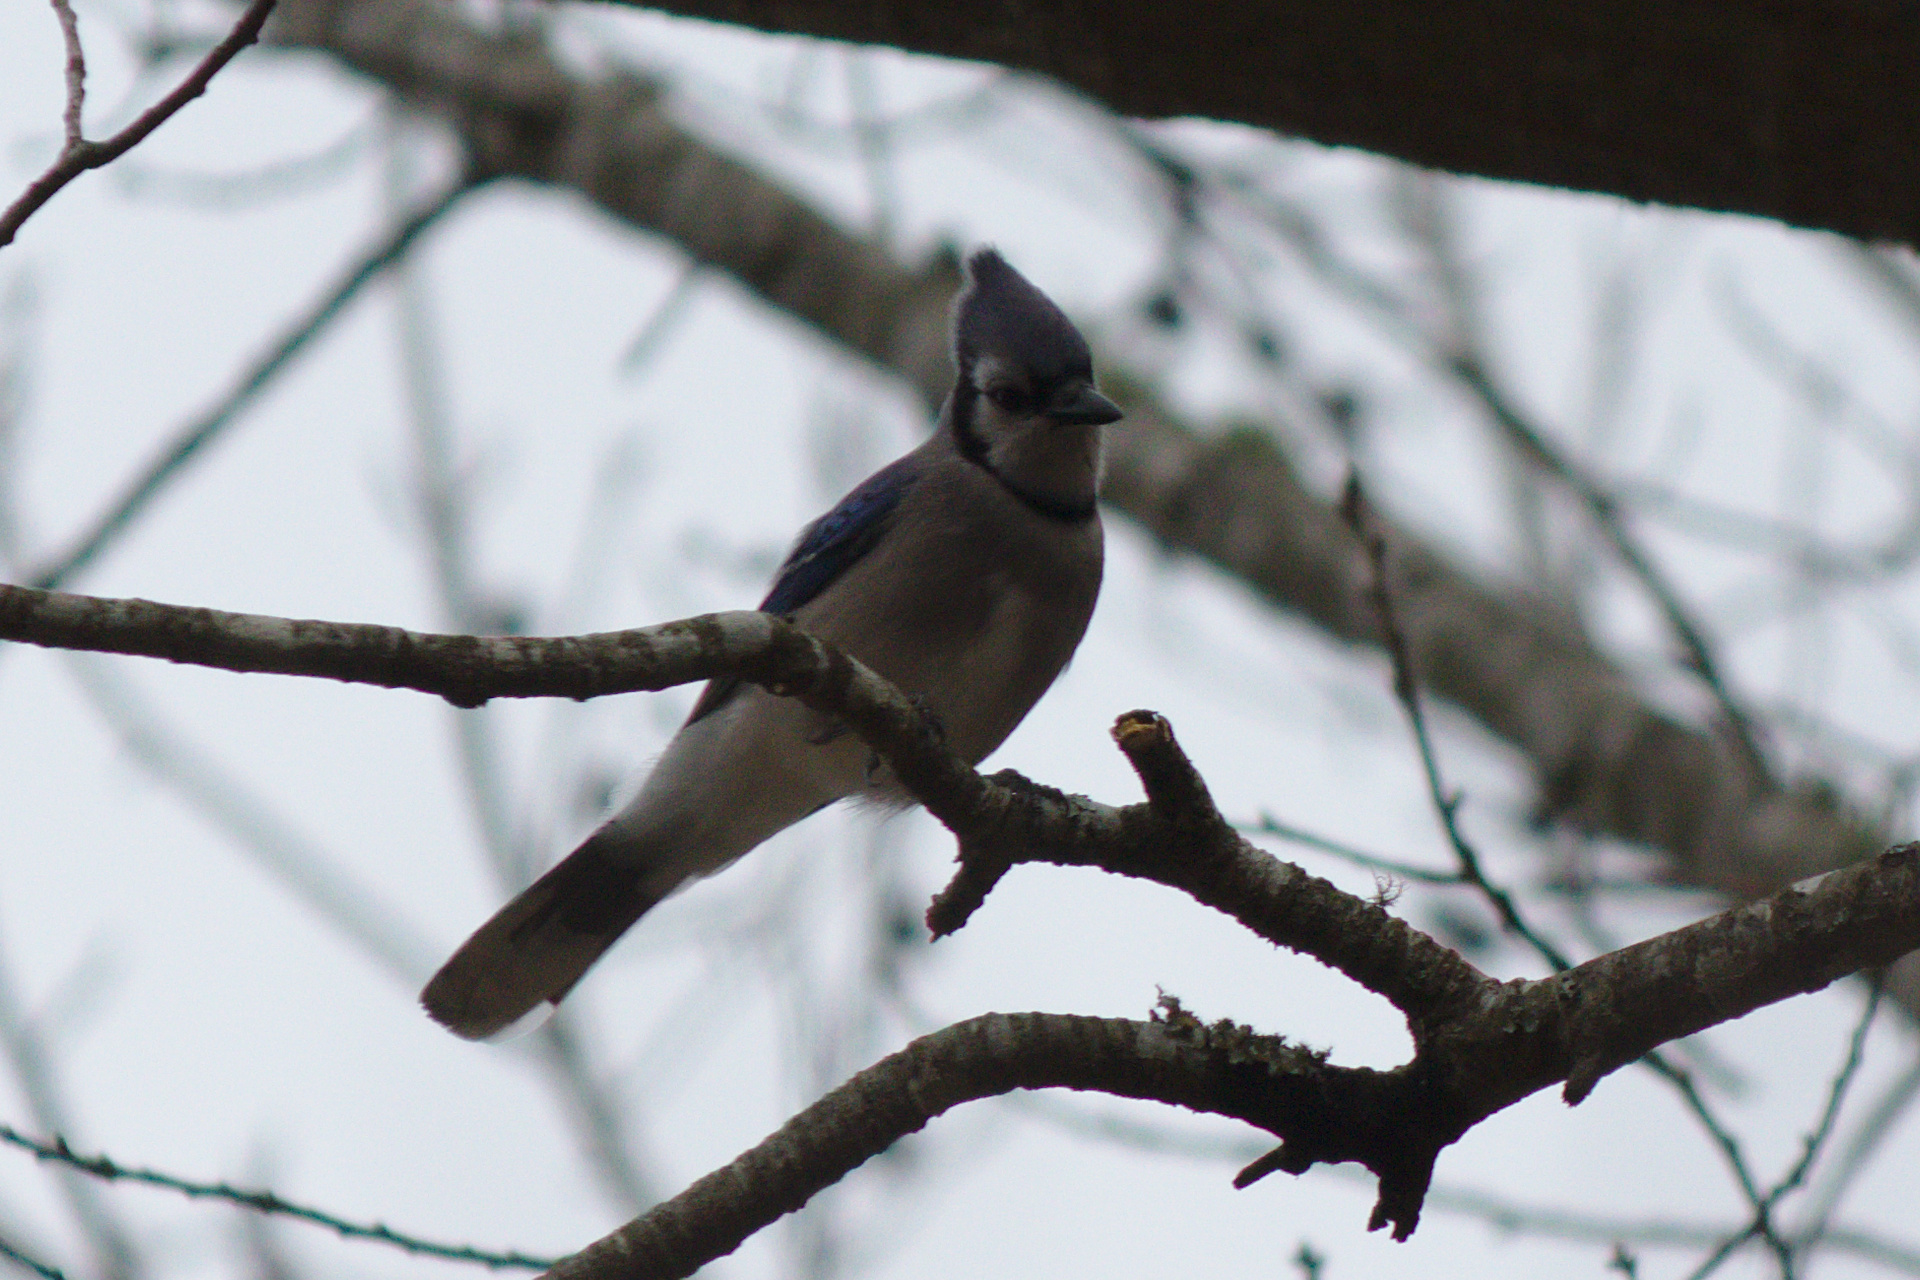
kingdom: Animalia
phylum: Chordata
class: Aves
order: Passeriformes
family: Corvidae
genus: Cyanocitta
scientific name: Cyanocitta cristata
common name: Blue jay
